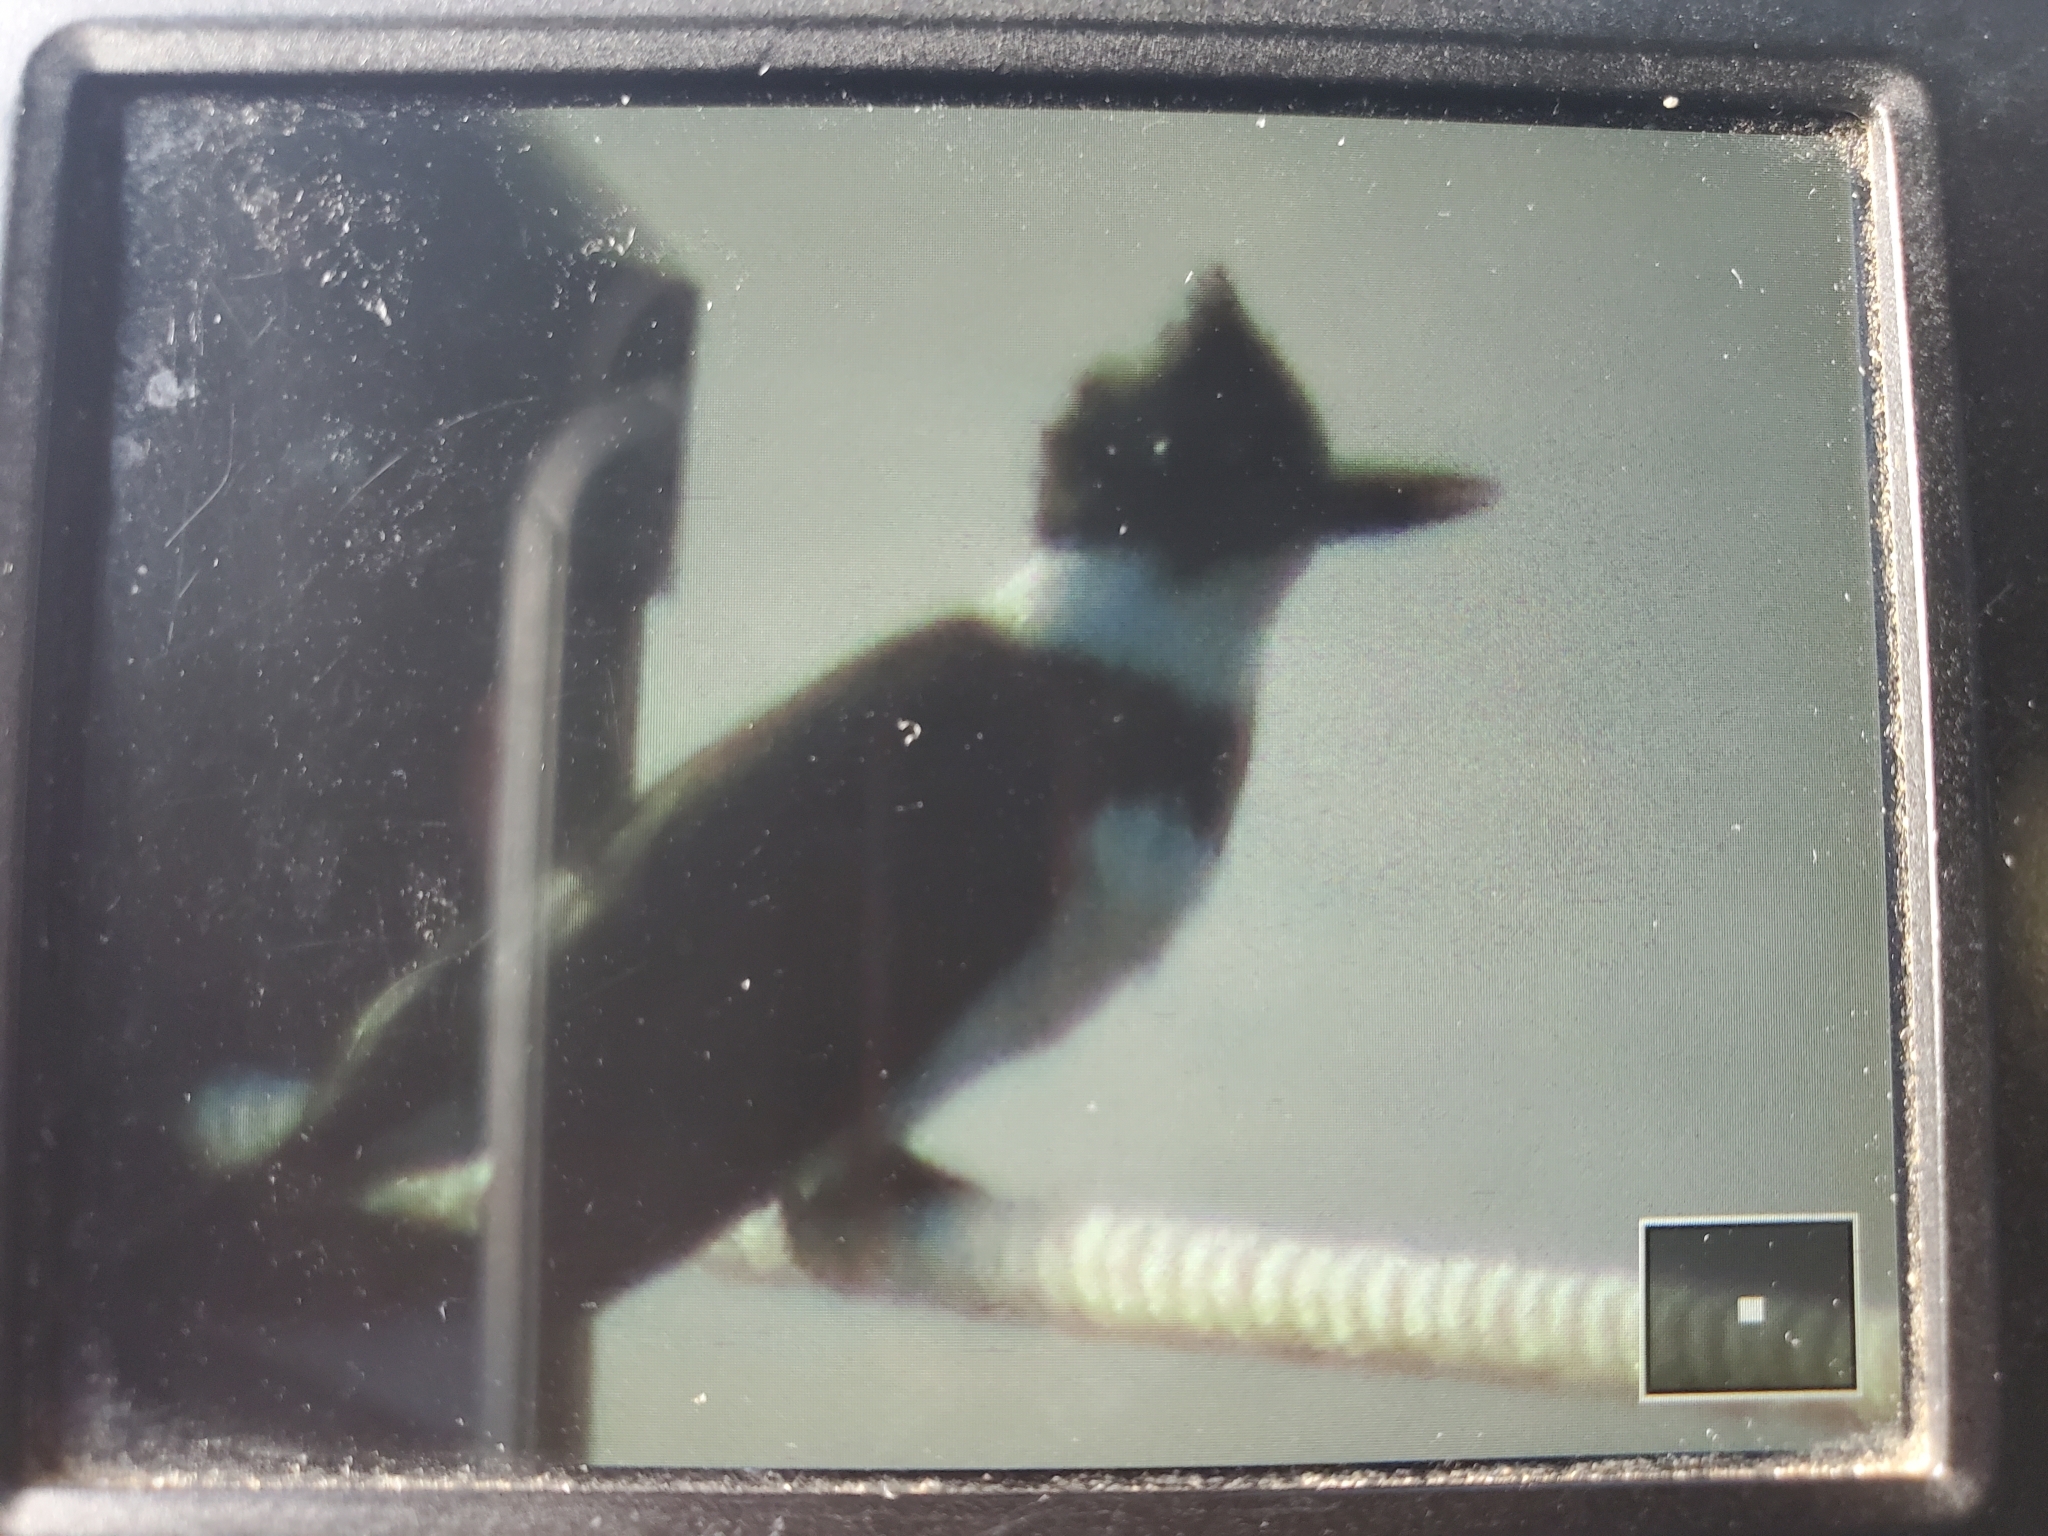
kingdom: Animalia
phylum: Chordata
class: Aves
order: Coraciiformes
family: Alcedinidae
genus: Megaceryle
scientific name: Megaceryle alcyon
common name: Belted kingfisher
